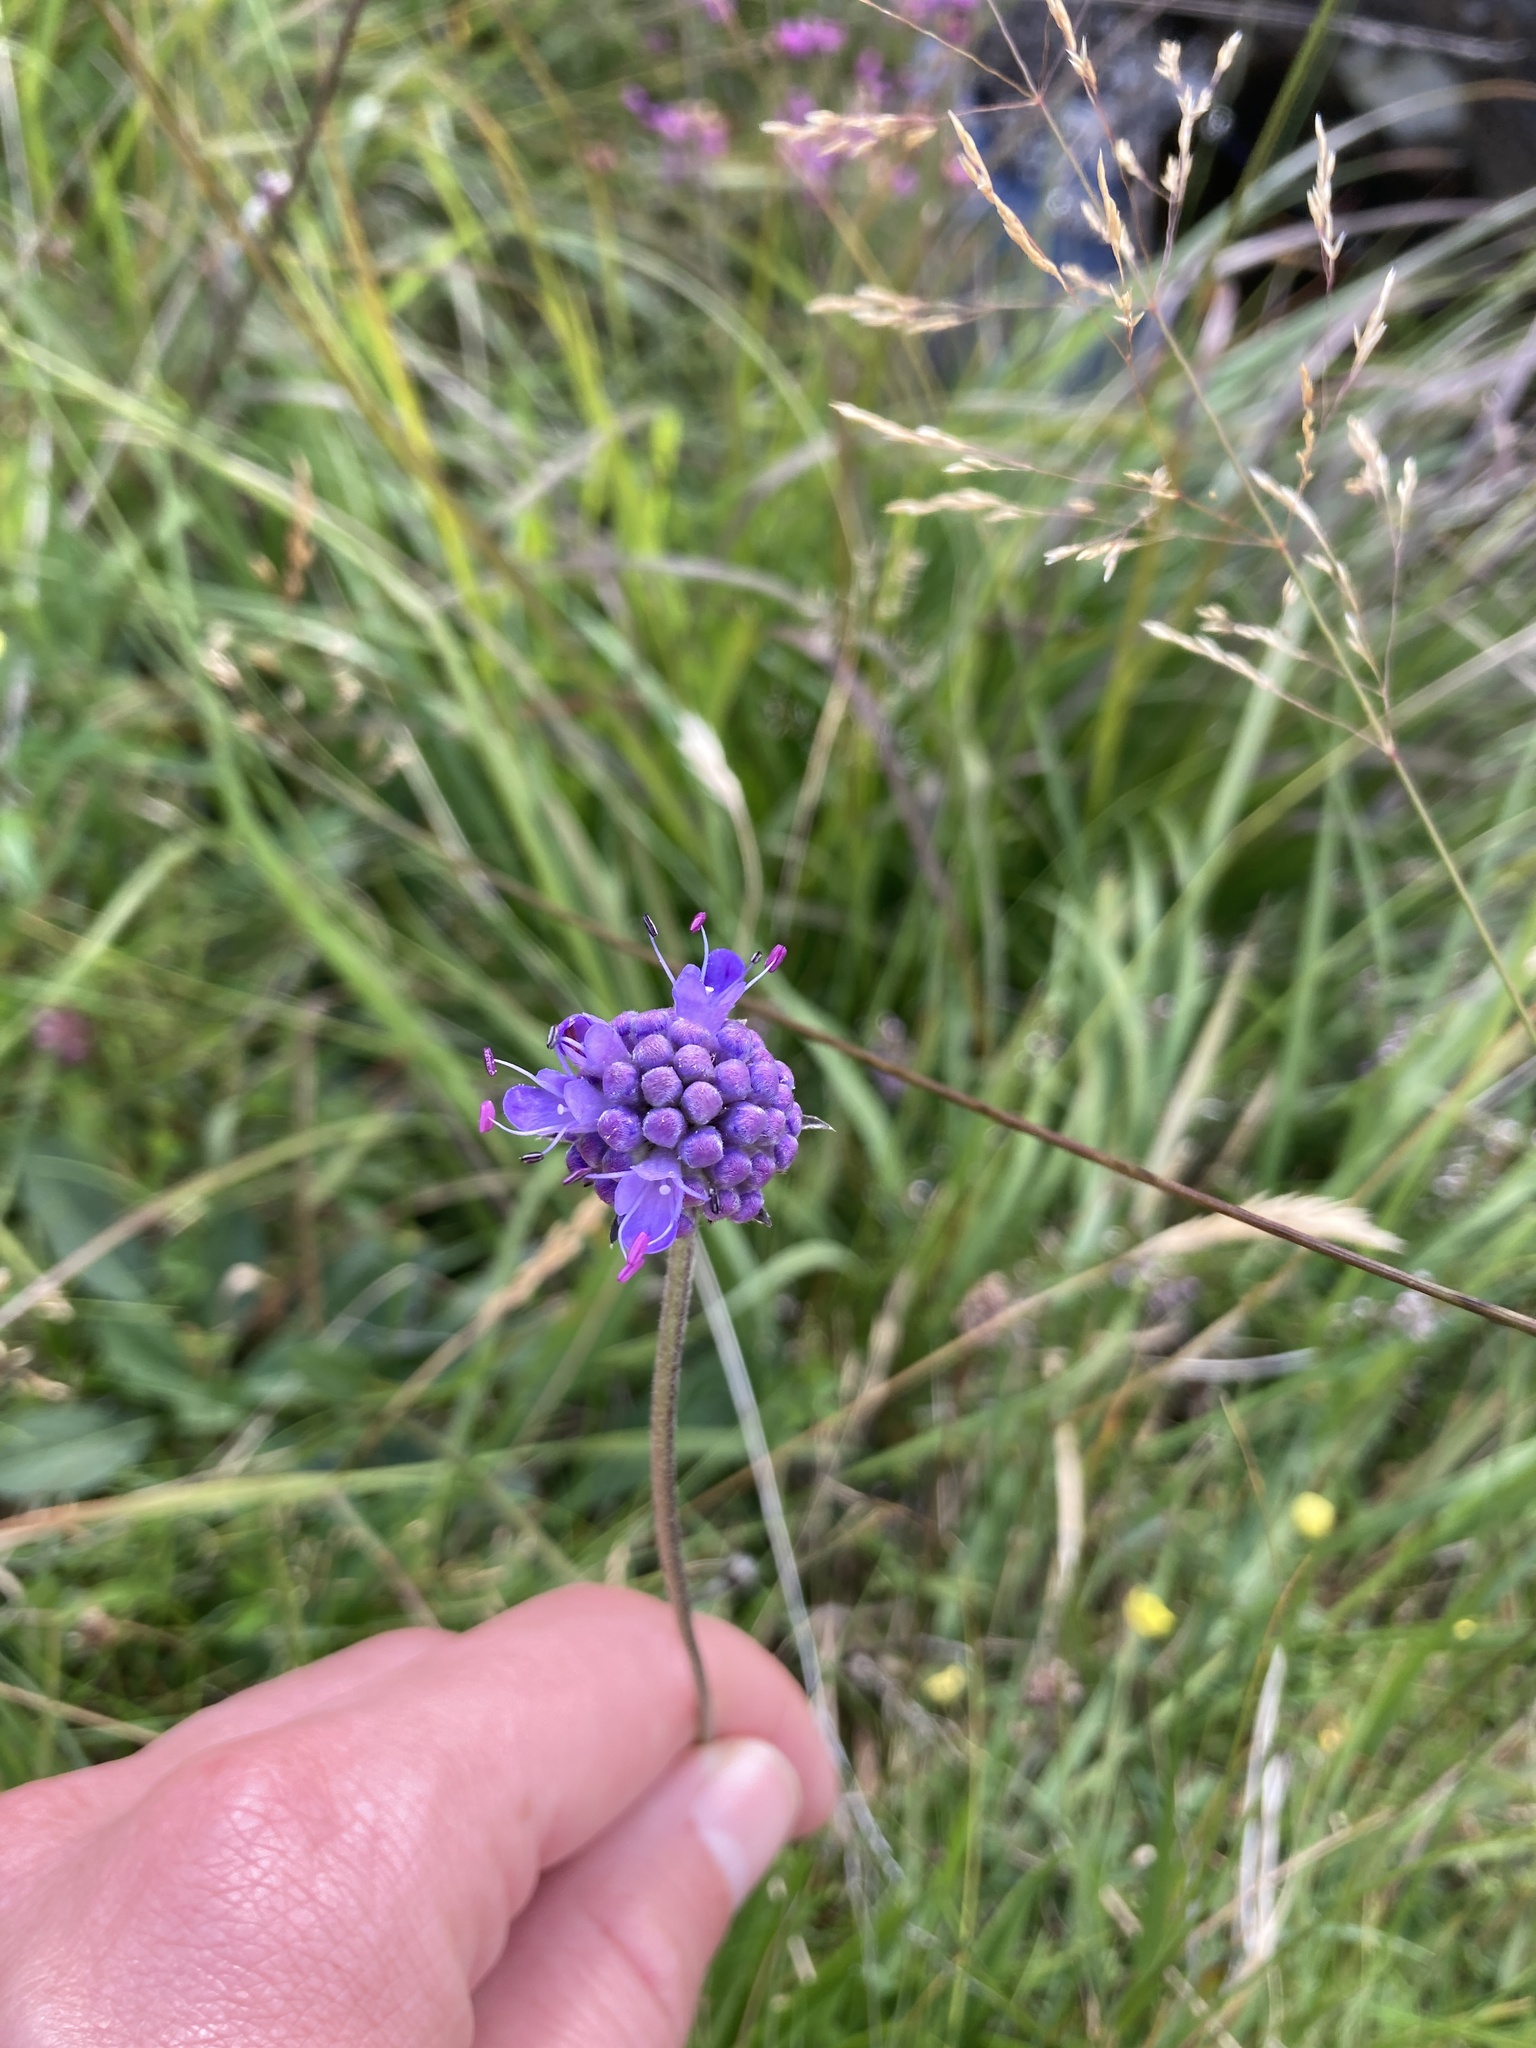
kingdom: Plantae
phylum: Tracheophyta
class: Magnoliopsida
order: Dipsacales
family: Caprifoliaceae
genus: Succisa
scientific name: Succisa pratensis
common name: Devil's-bit
